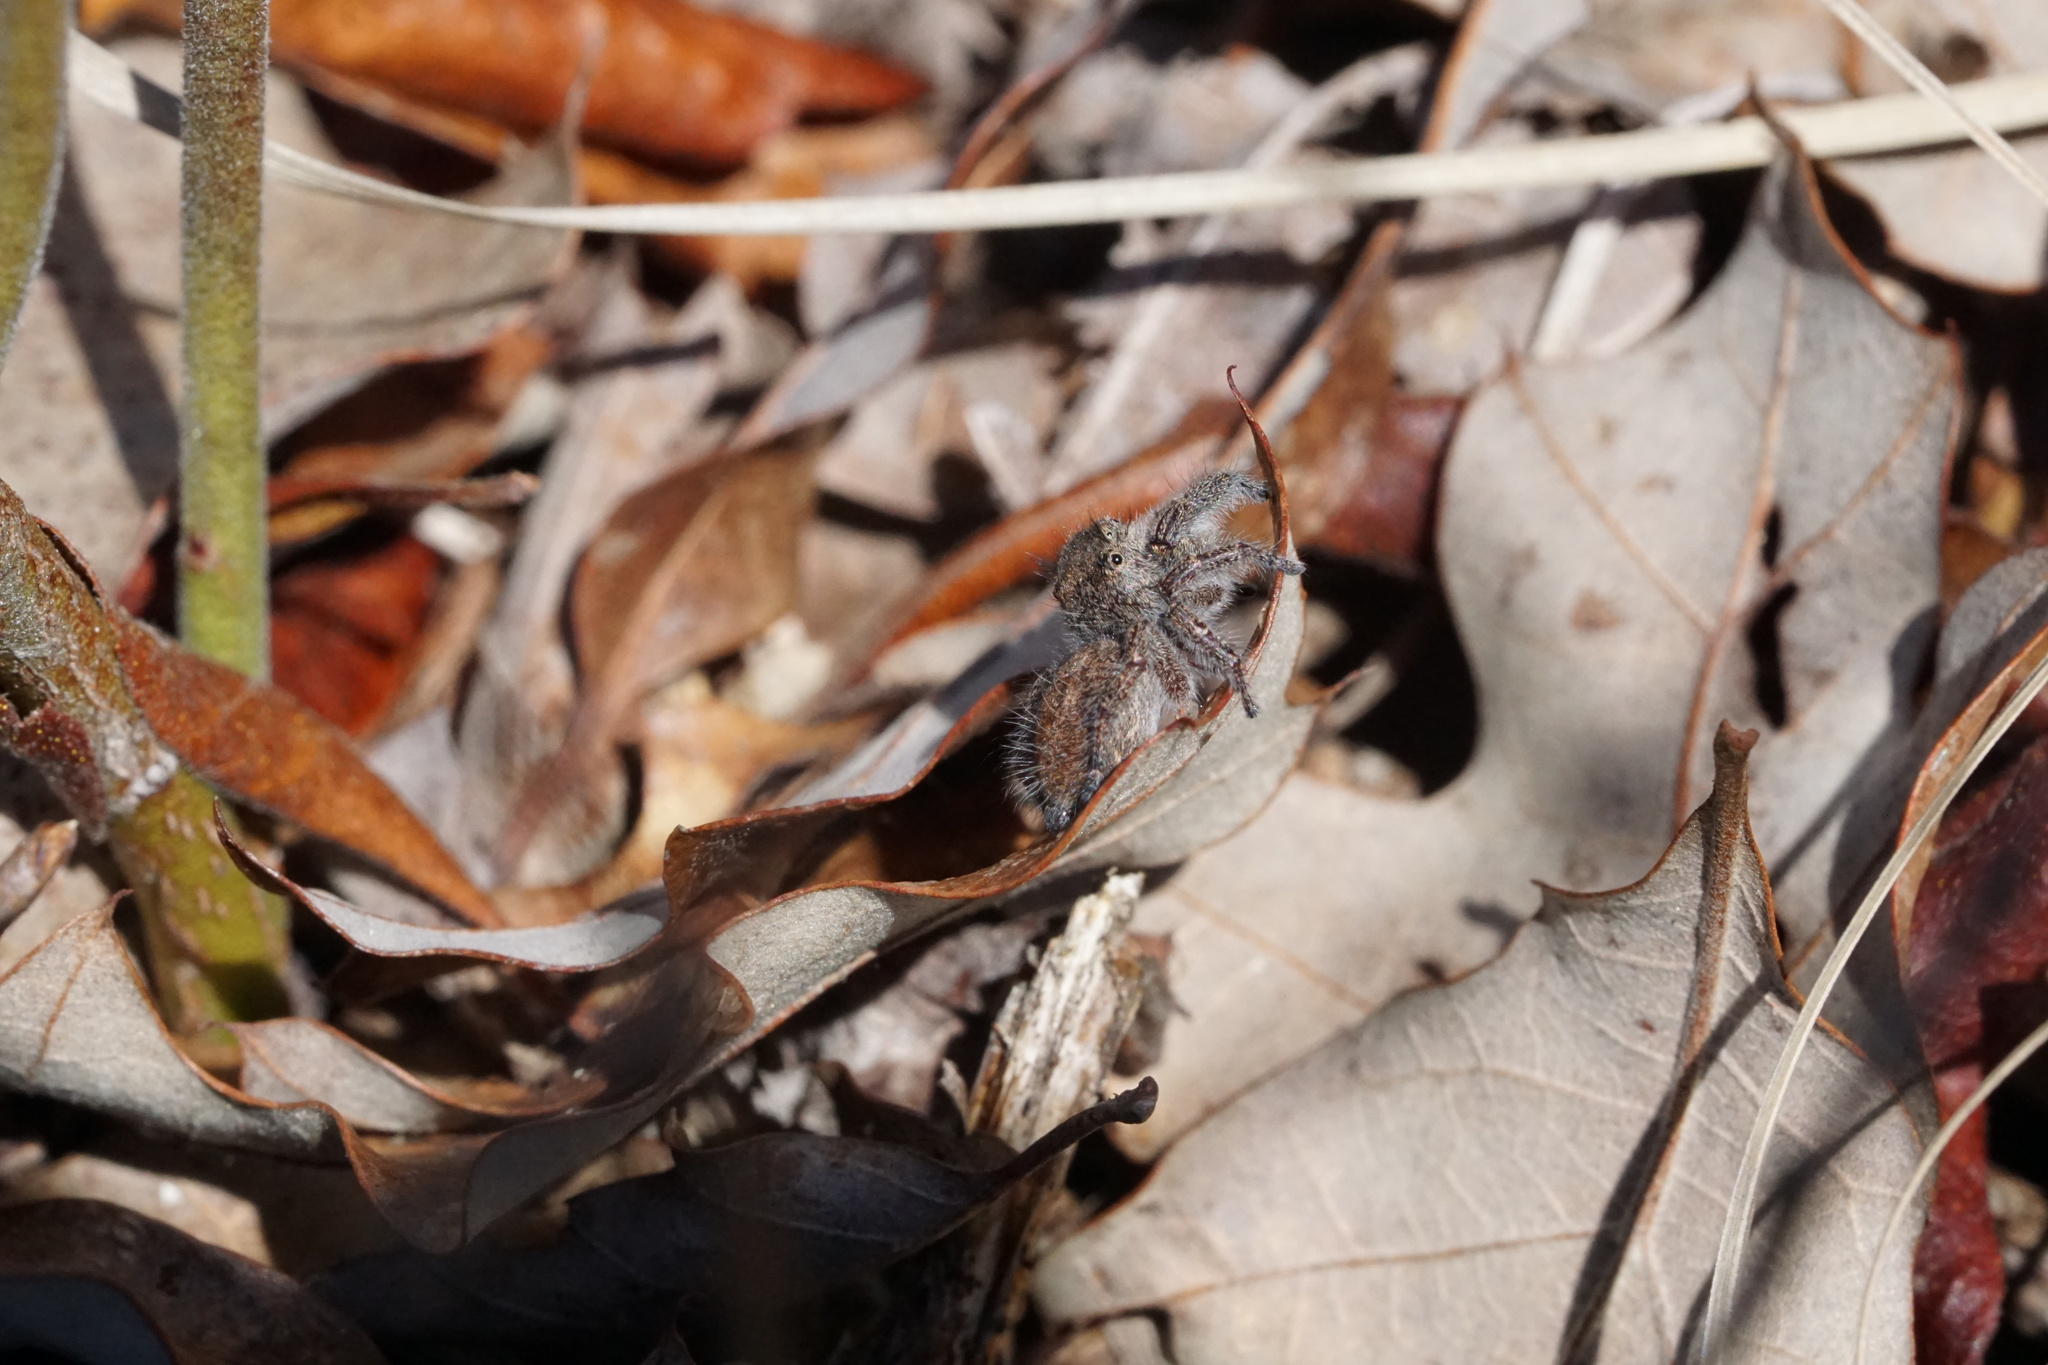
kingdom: Animalia
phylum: Arthropoda
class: Arachnida
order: Araneae
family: Salticidae
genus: Phidippus
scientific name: Phidippus princeps
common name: Grayish jumping spider
